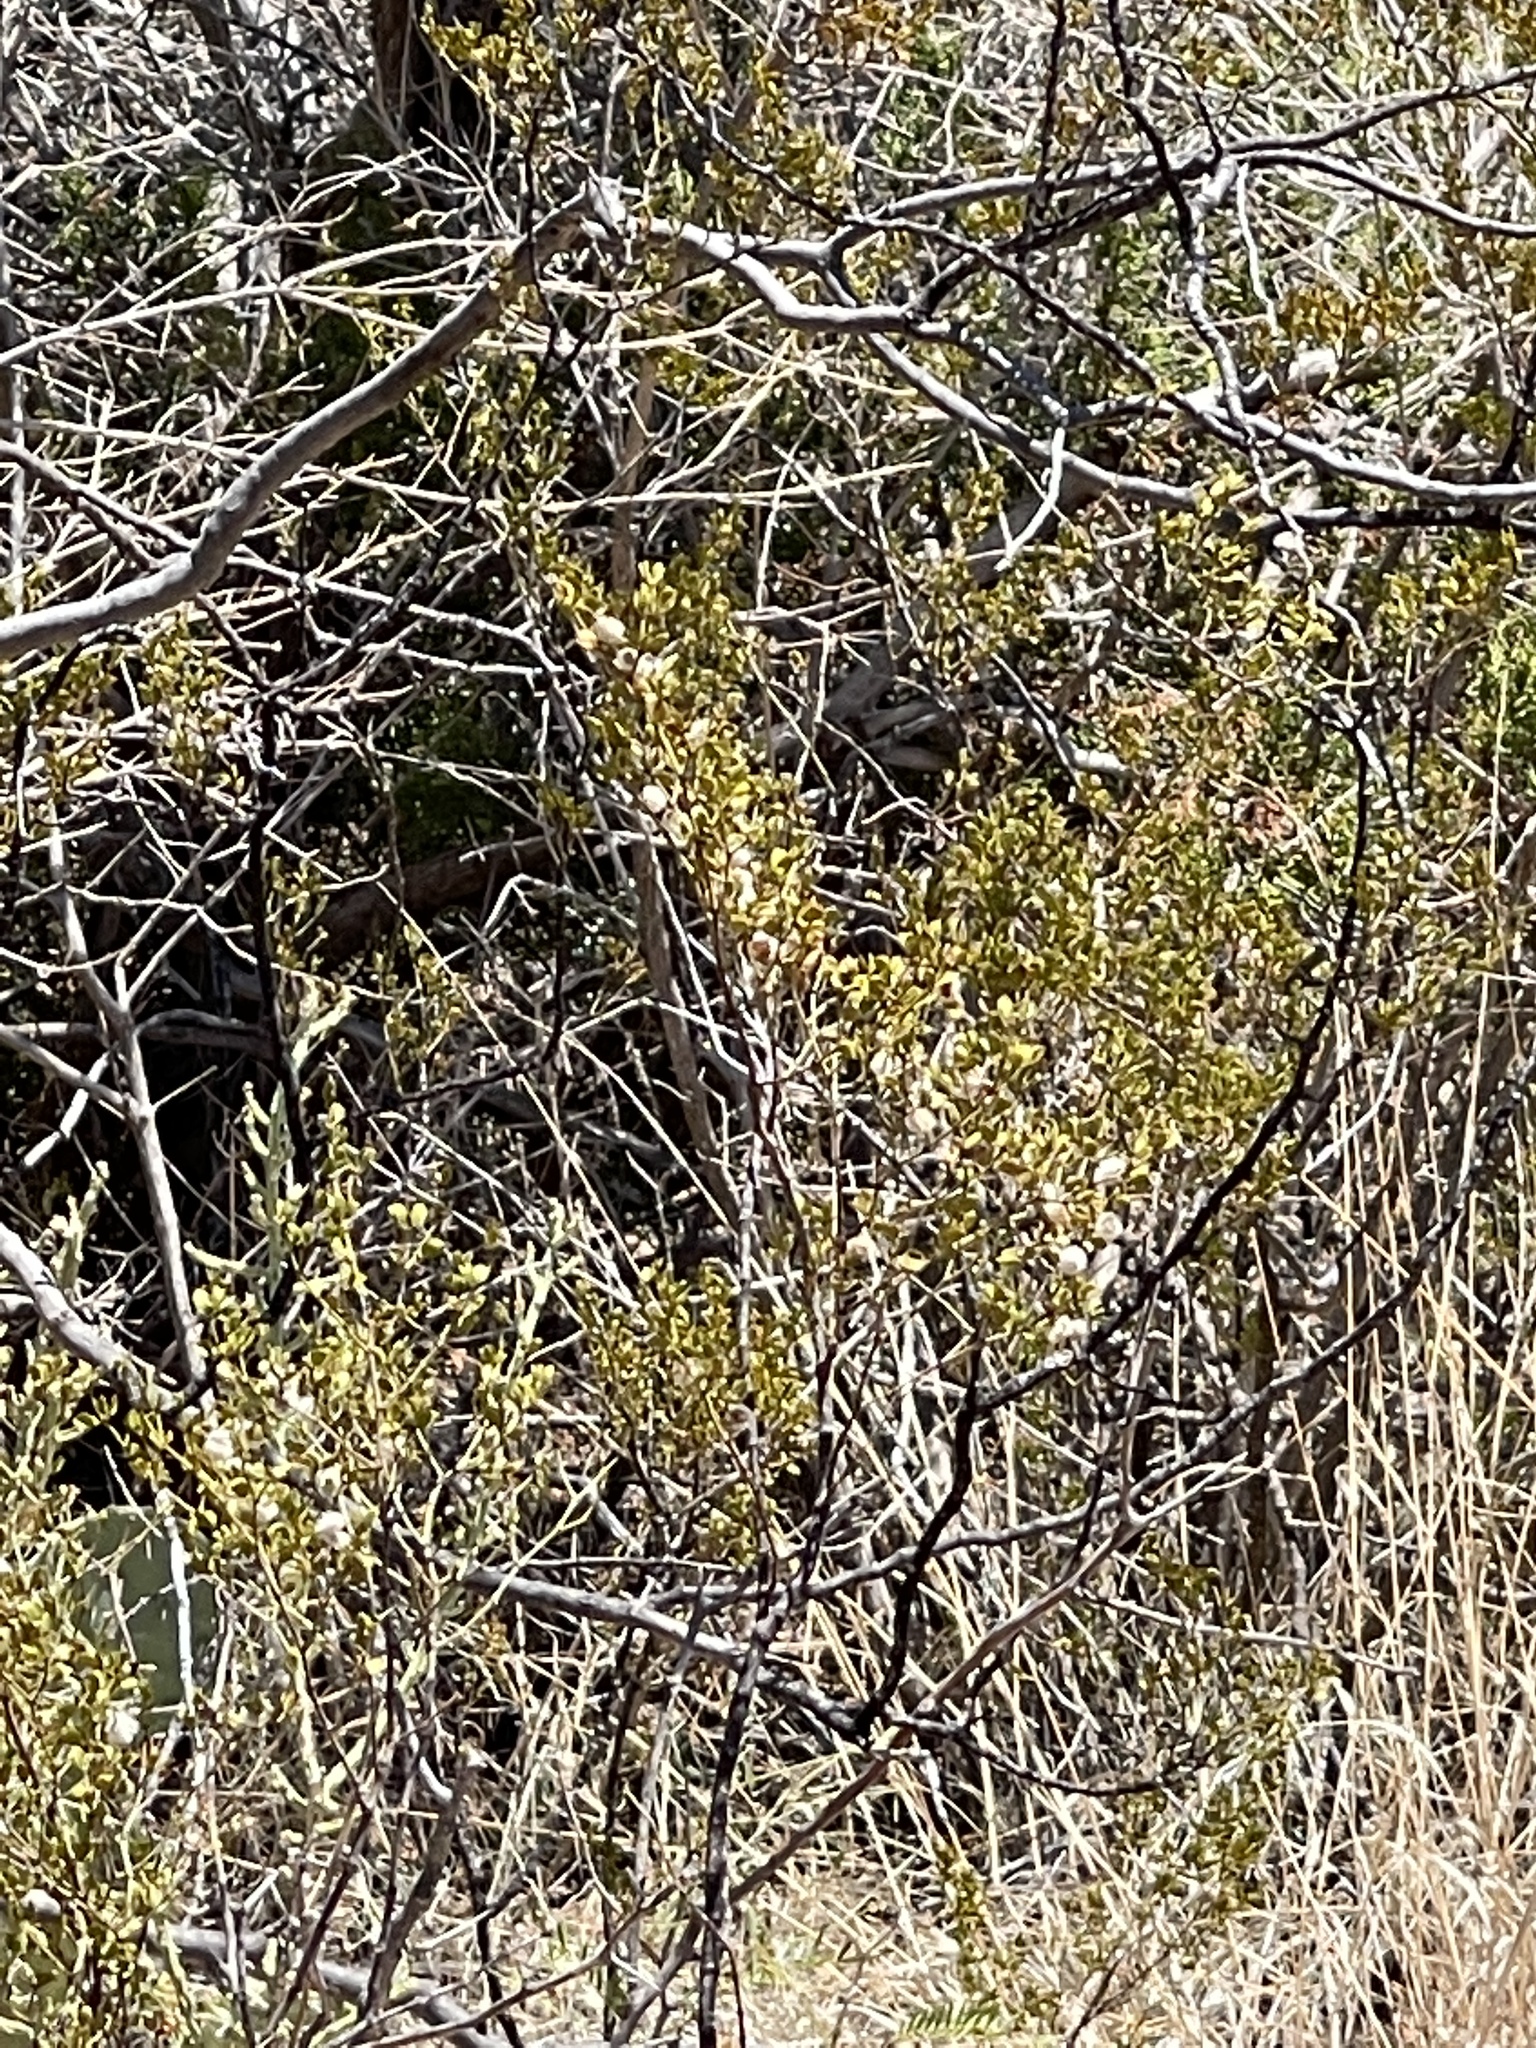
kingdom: Plantae
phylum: Tracheophyta
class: Magnoliopsida
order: Zygophyllales
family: Zygophyllaceae
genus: Larrea
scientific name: Larrea tridentata
